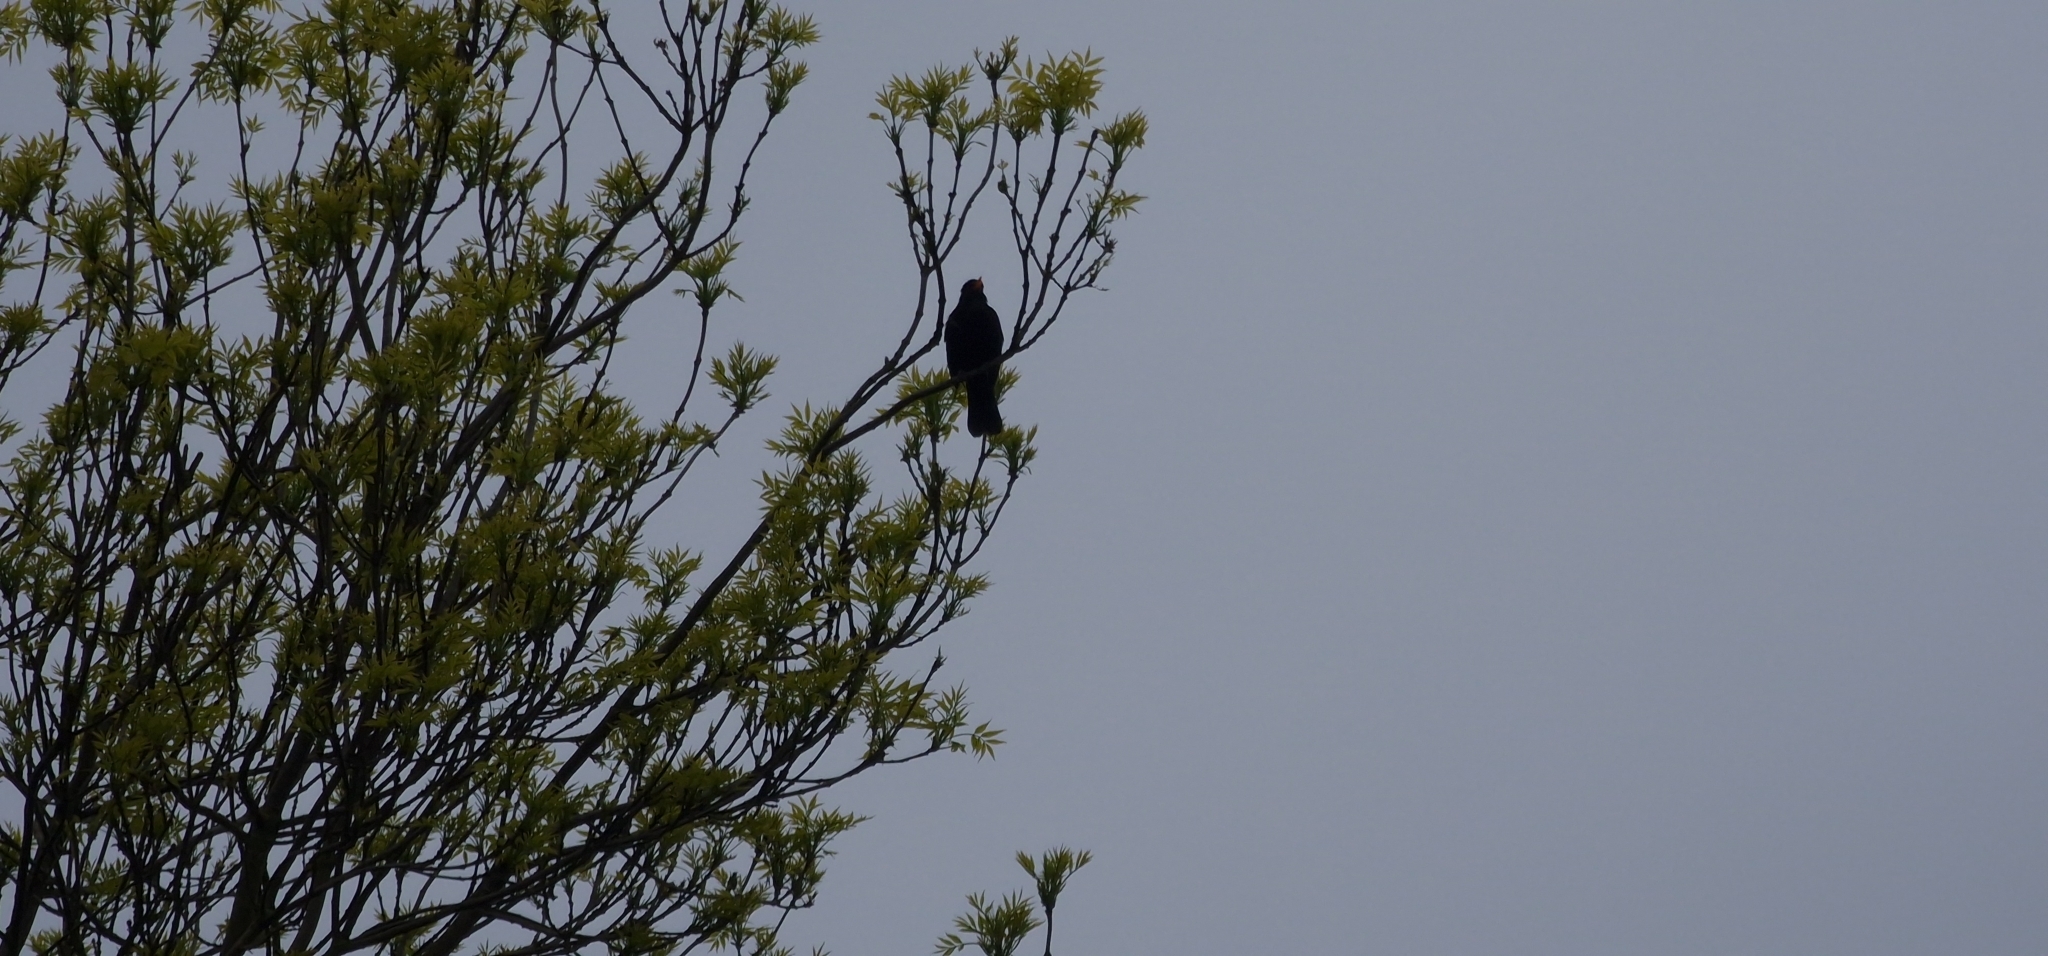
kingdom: Animalia
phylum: Chordata
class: Aves
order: Passeriformes
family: Turdidae
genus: Turdus
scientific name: Turdus merula
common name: Common blackbird
